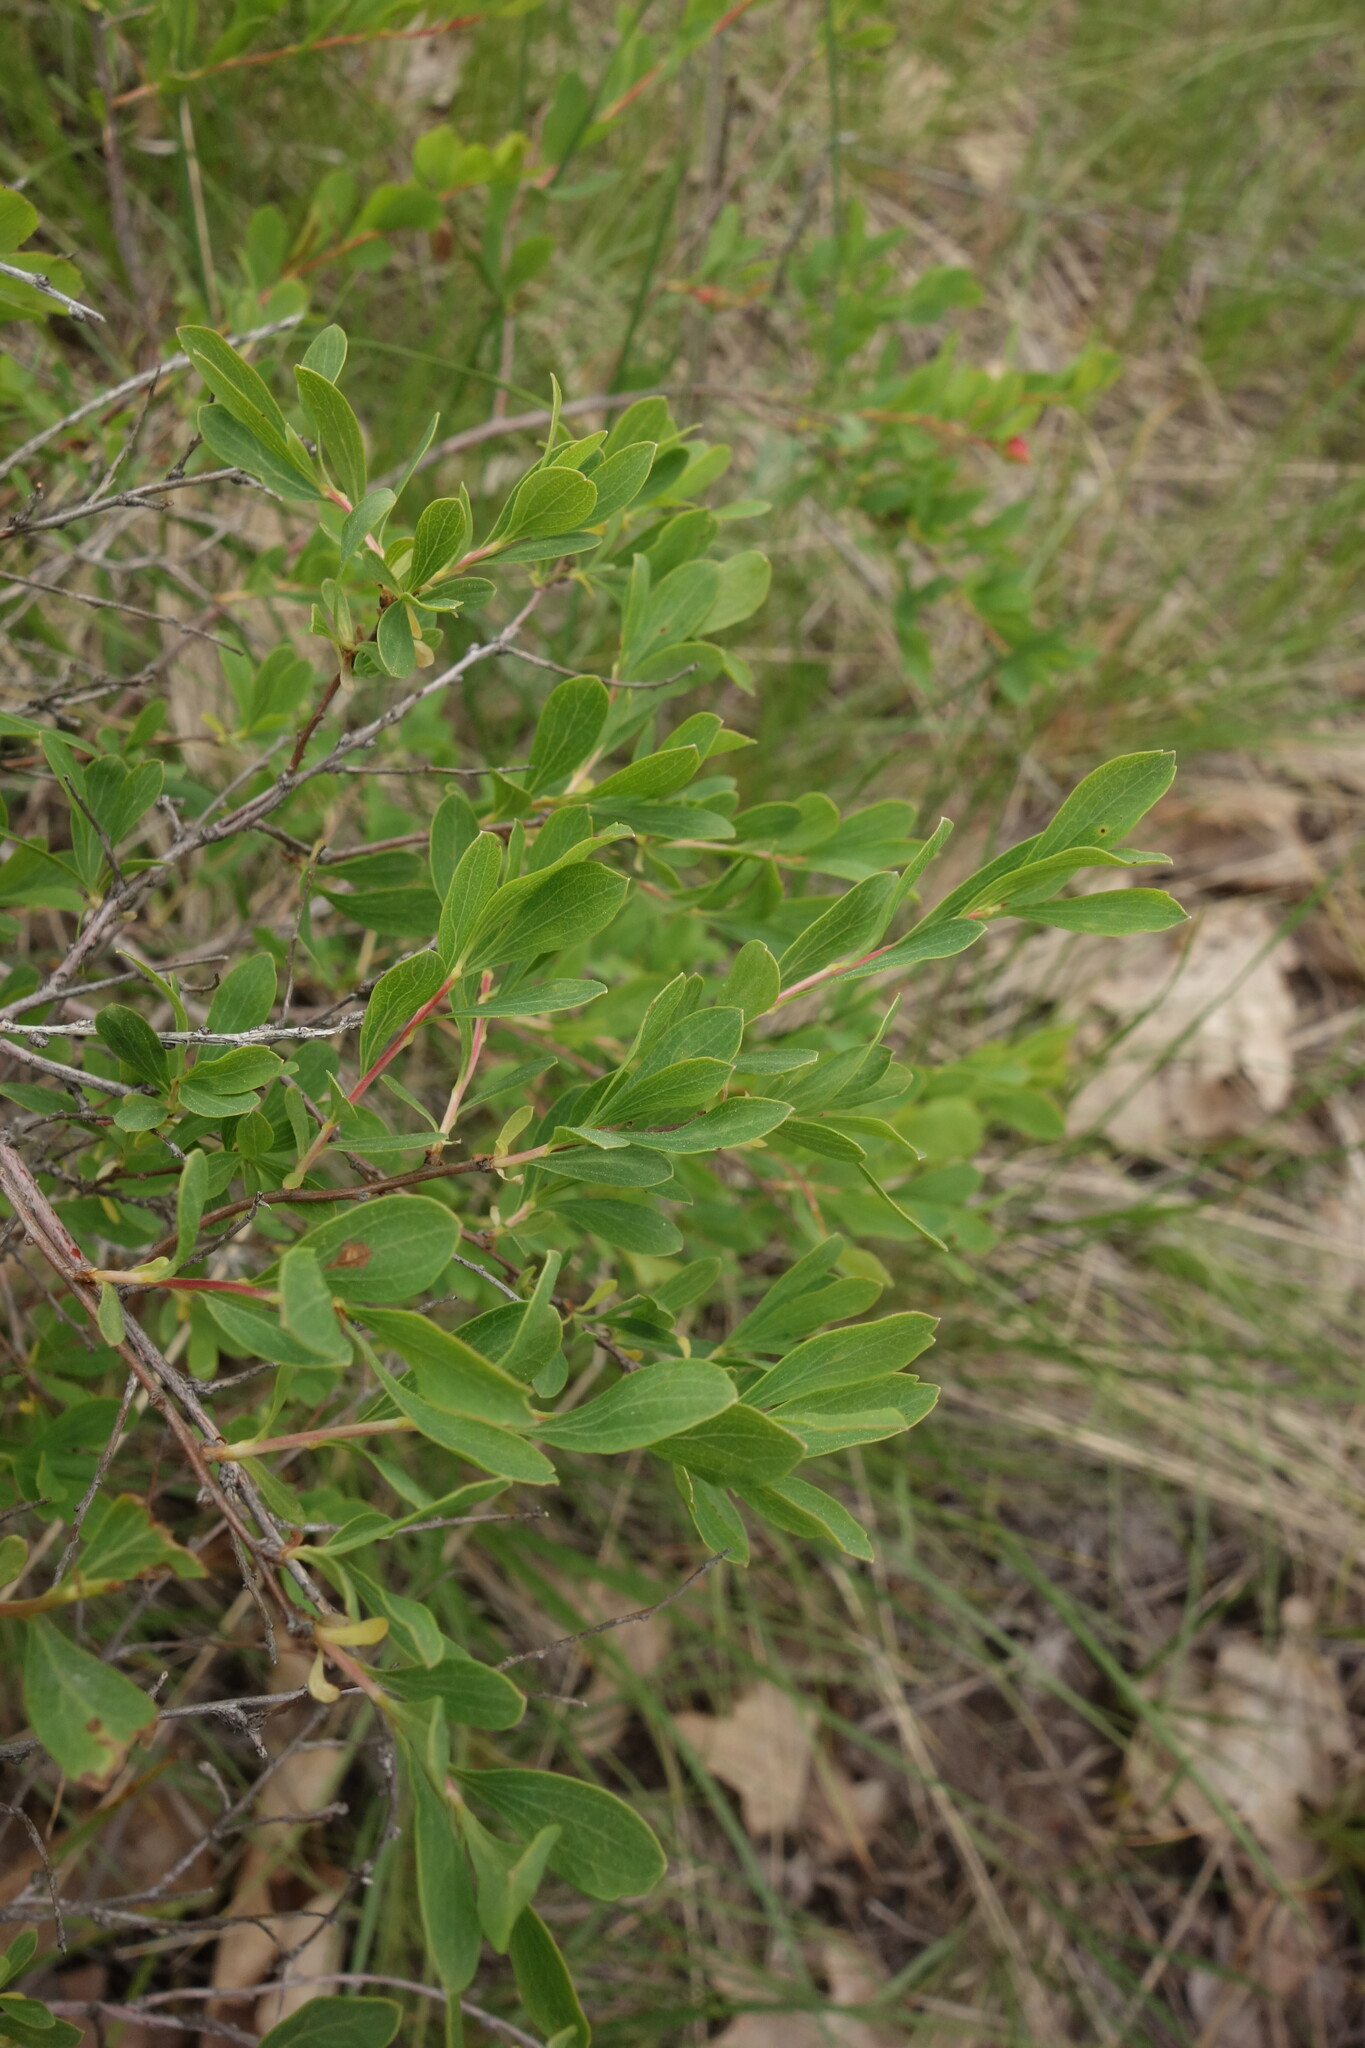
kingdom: Plantae
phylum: Tracheophyta
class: Magnoliopsida
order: Rosales
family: Rosaceae
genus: Spiraea
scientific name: Spiraea crenata
